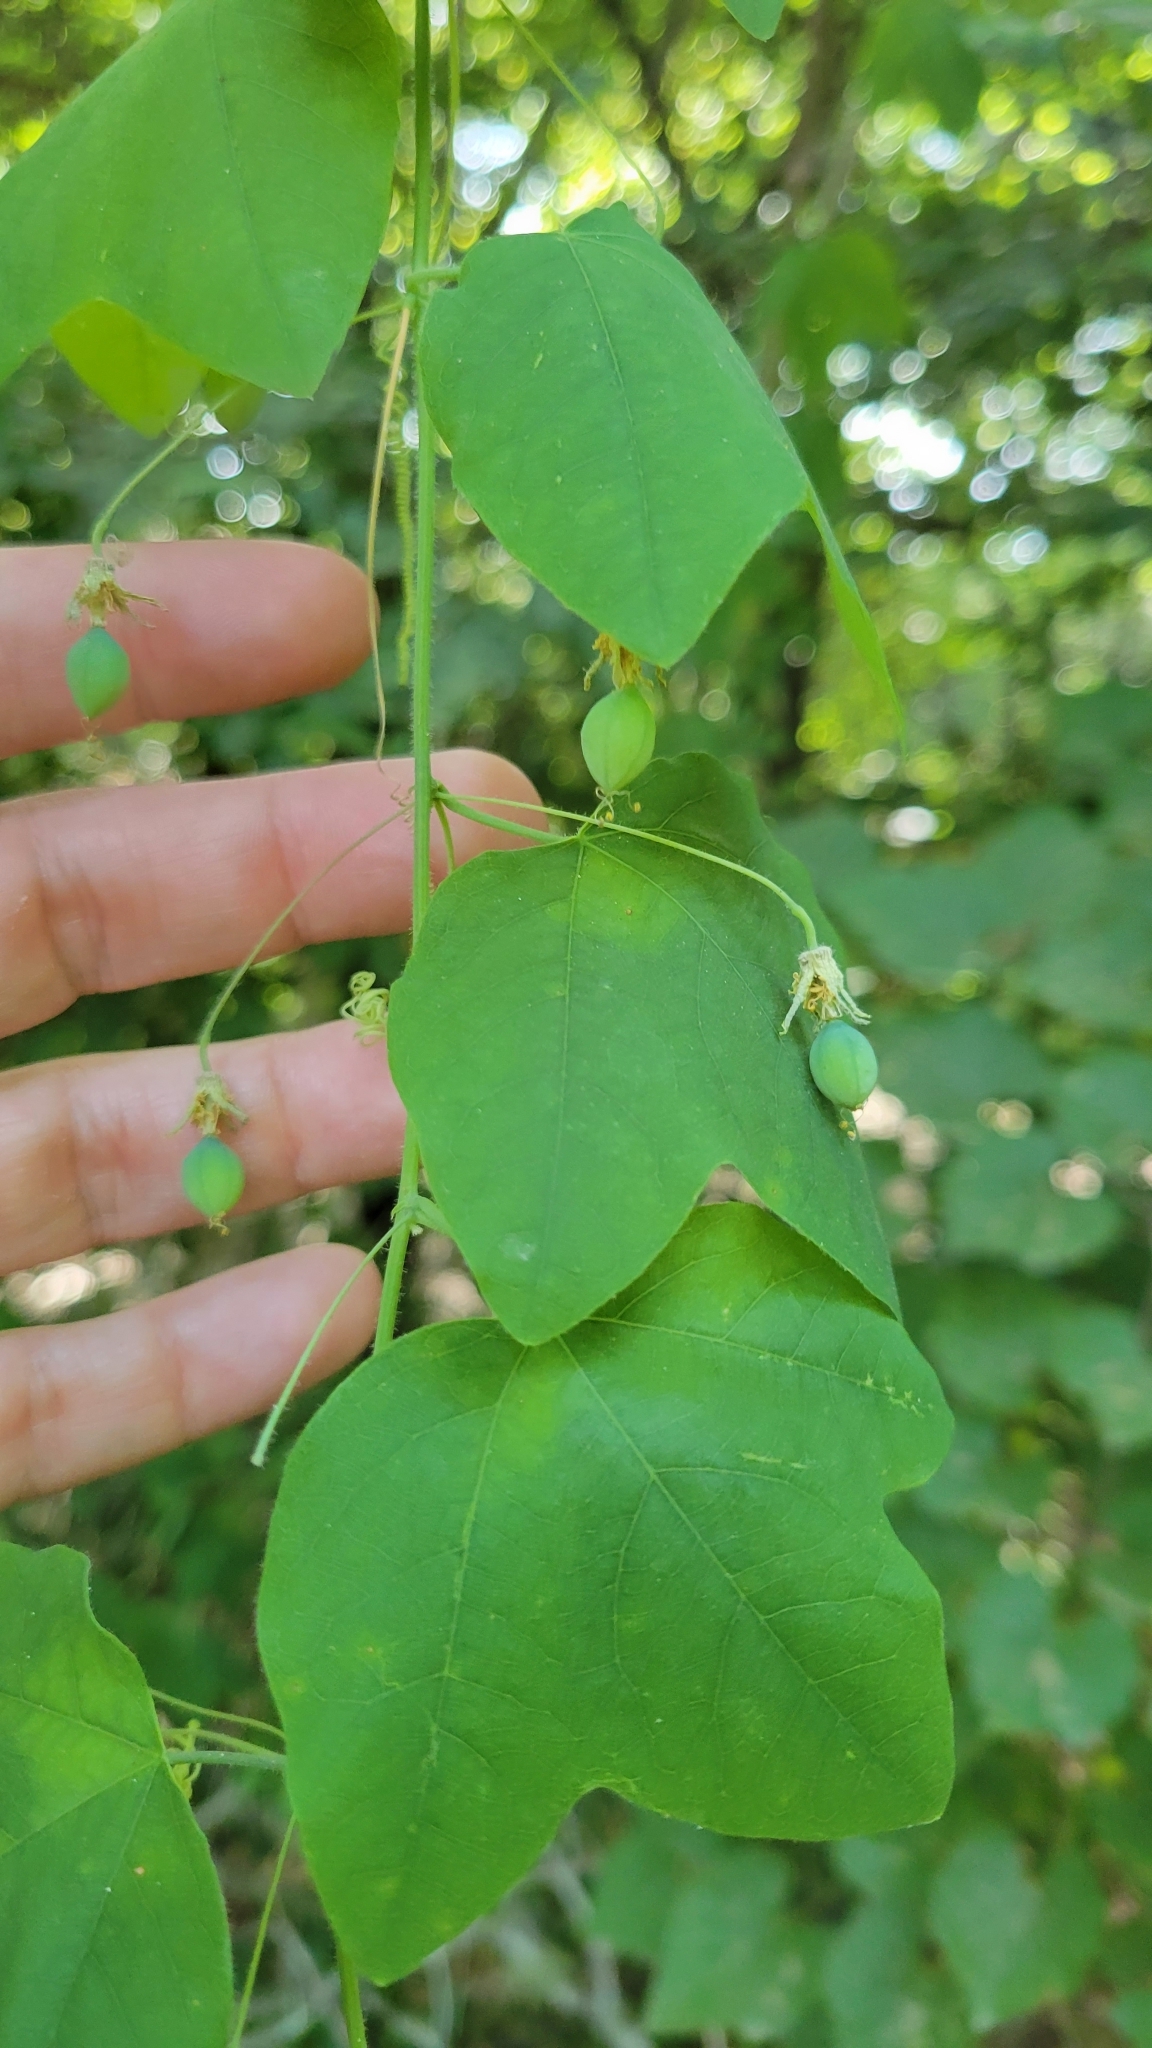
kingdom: Plantae
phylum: Tracheophyta
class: Magnoliopsida
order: Malpighiales
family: Passifloraceae
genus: Passiflora
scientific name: Passiflora lutea
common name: Yellow passionflower
